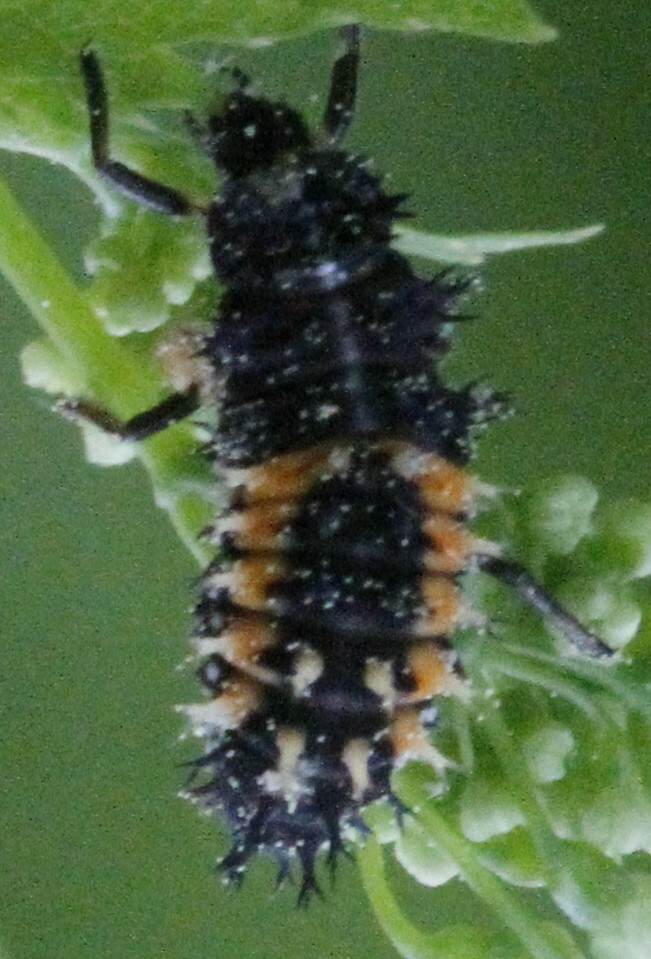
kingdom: Animalia
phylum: Arthropoda
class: Insecta
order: Coleoptera
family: Coccinellidae
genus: Harmonia
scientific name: Harmonia axyridis
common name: Harlequin ladybird
